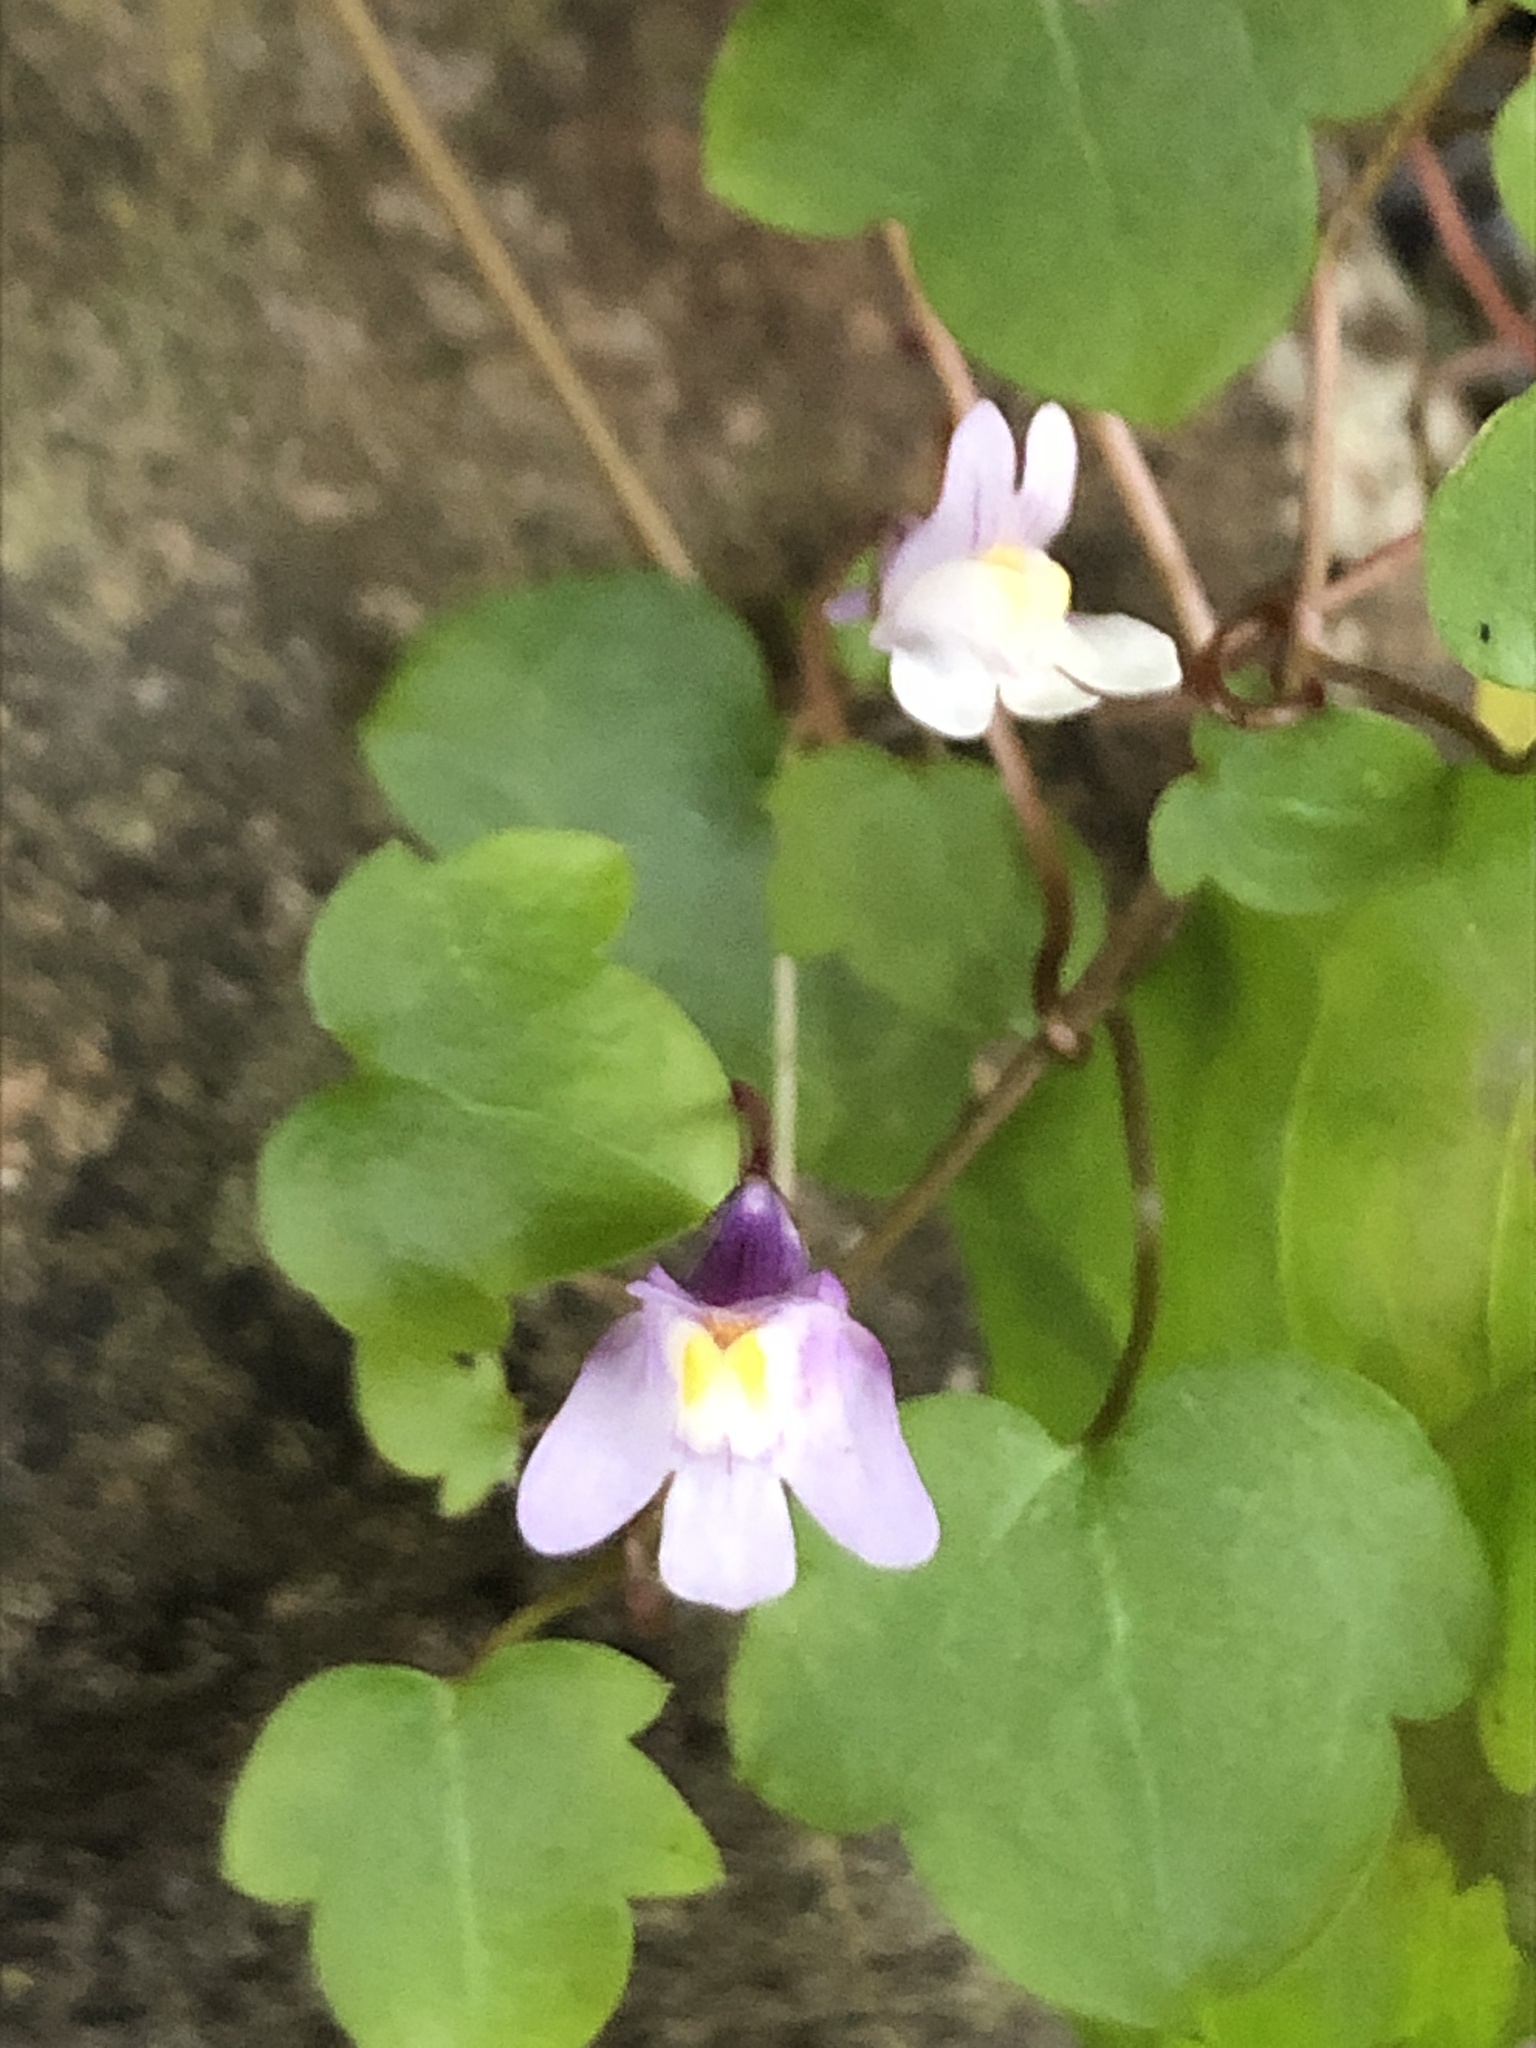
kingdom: Plantae
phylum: Tracheophyta
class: Magnoliopsida
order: Lamiales
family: Plantaginaceae
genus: Cymbalaria
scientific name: Cymbalaria muralis
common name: Ivy-leaved toadflax
